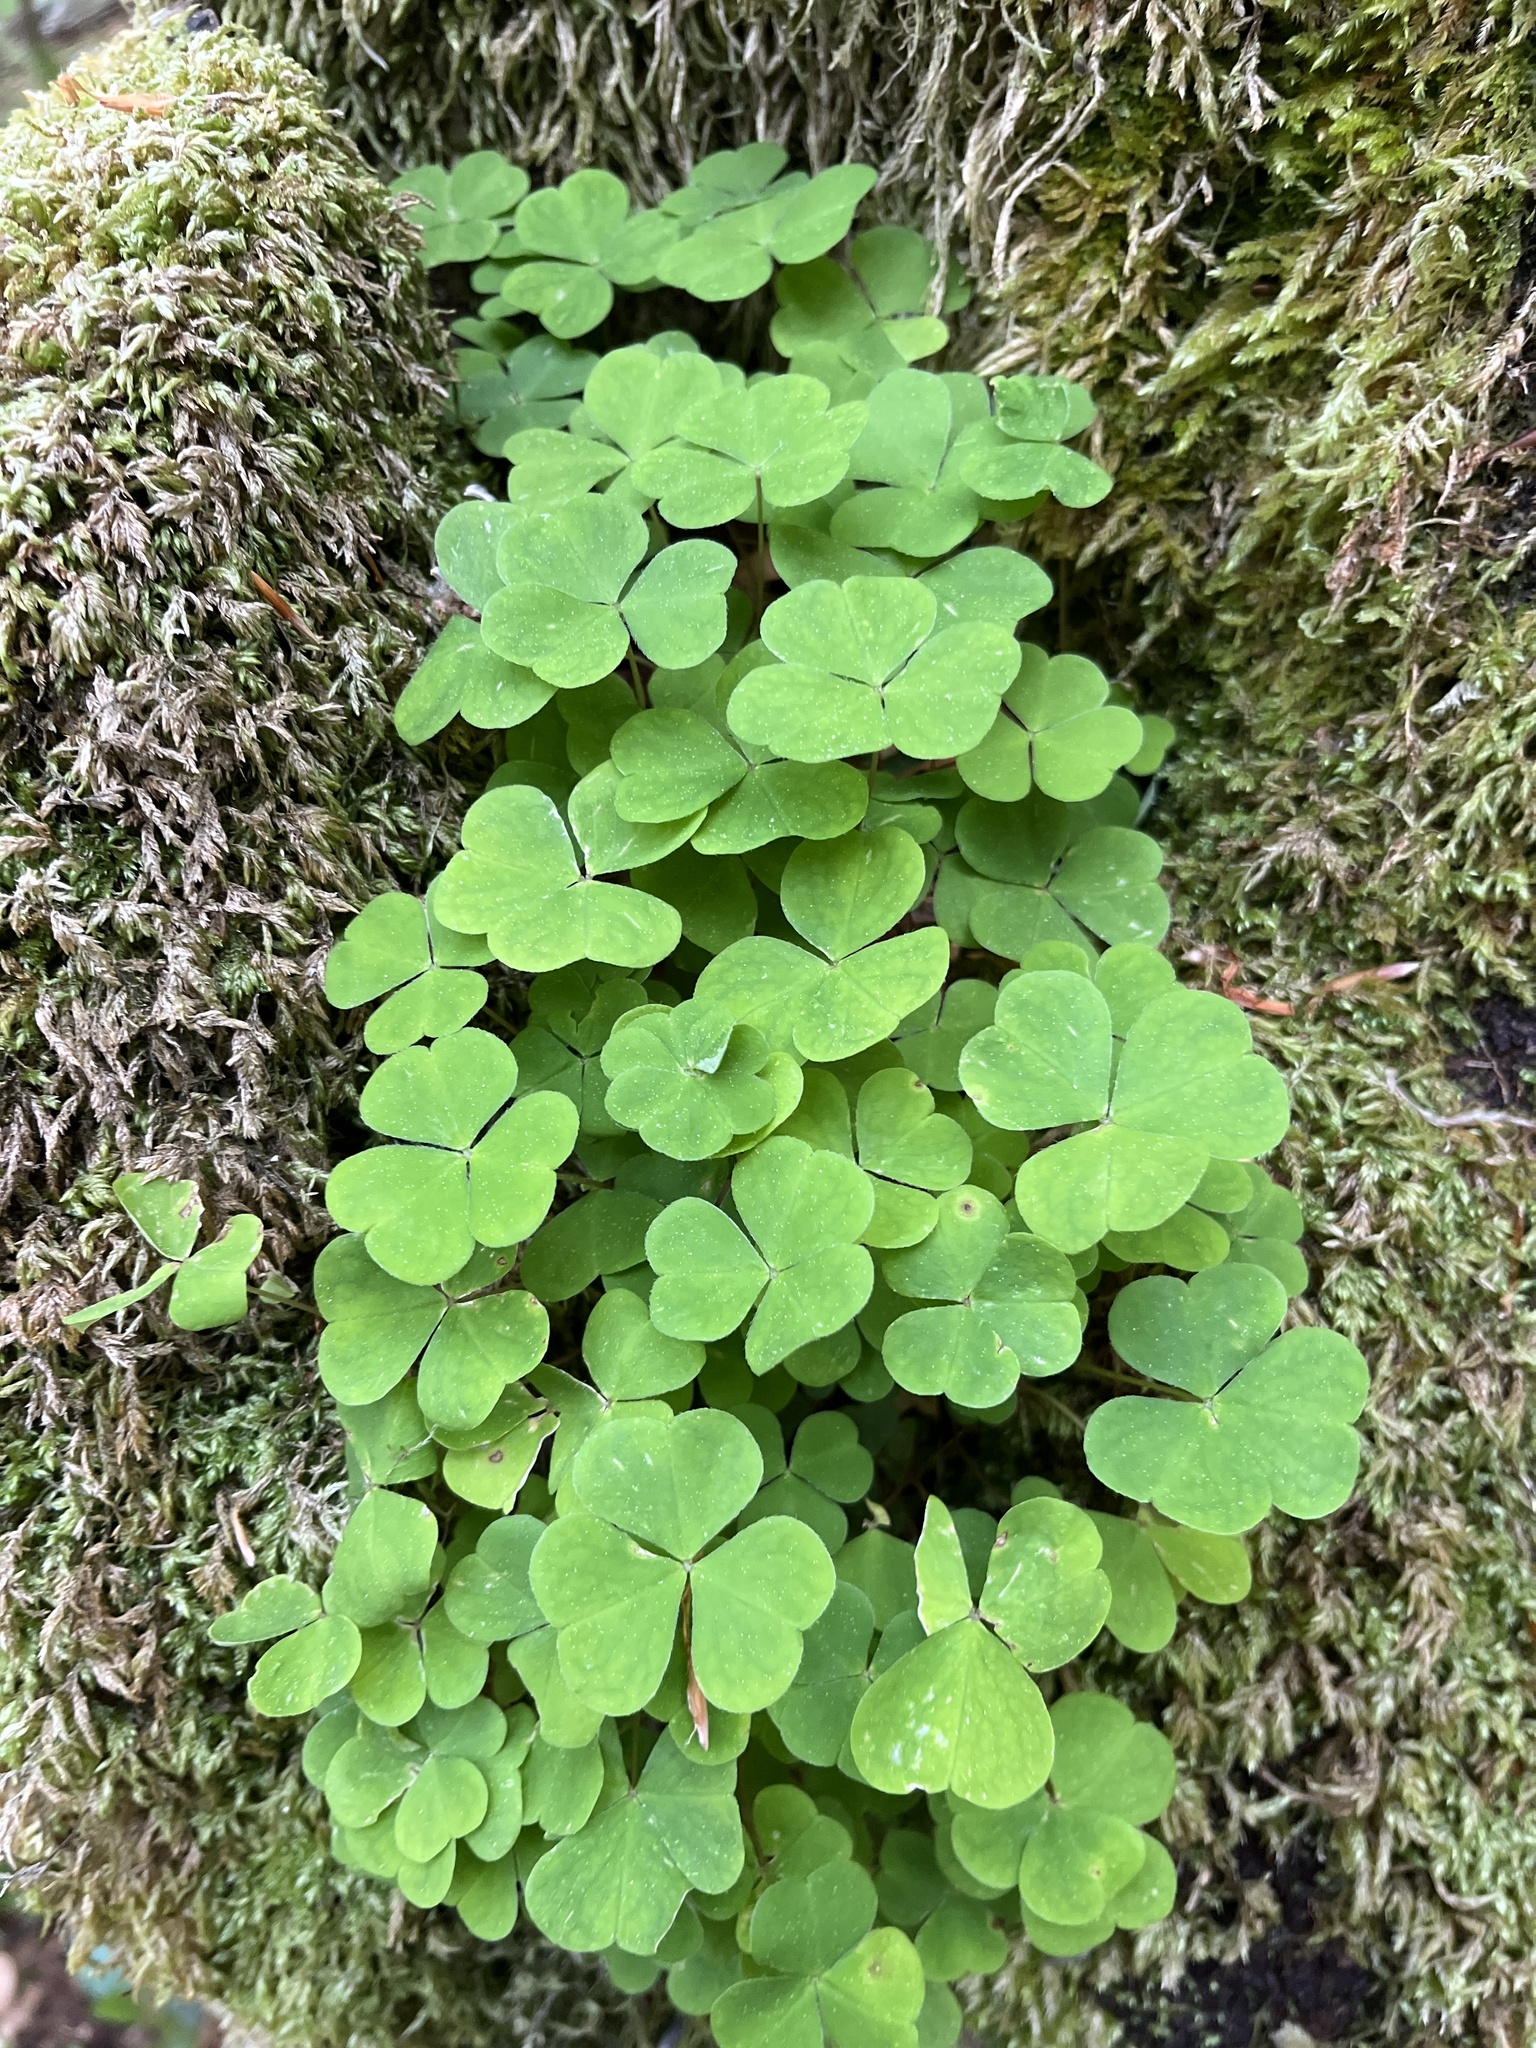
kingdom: Plantae
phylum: Tracheophyta
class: Magnoliopsida
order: Oxalidales
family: Oxalidaceae
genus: Oxalis
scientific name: Oxalis acetosella
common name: Wood-sorrel
